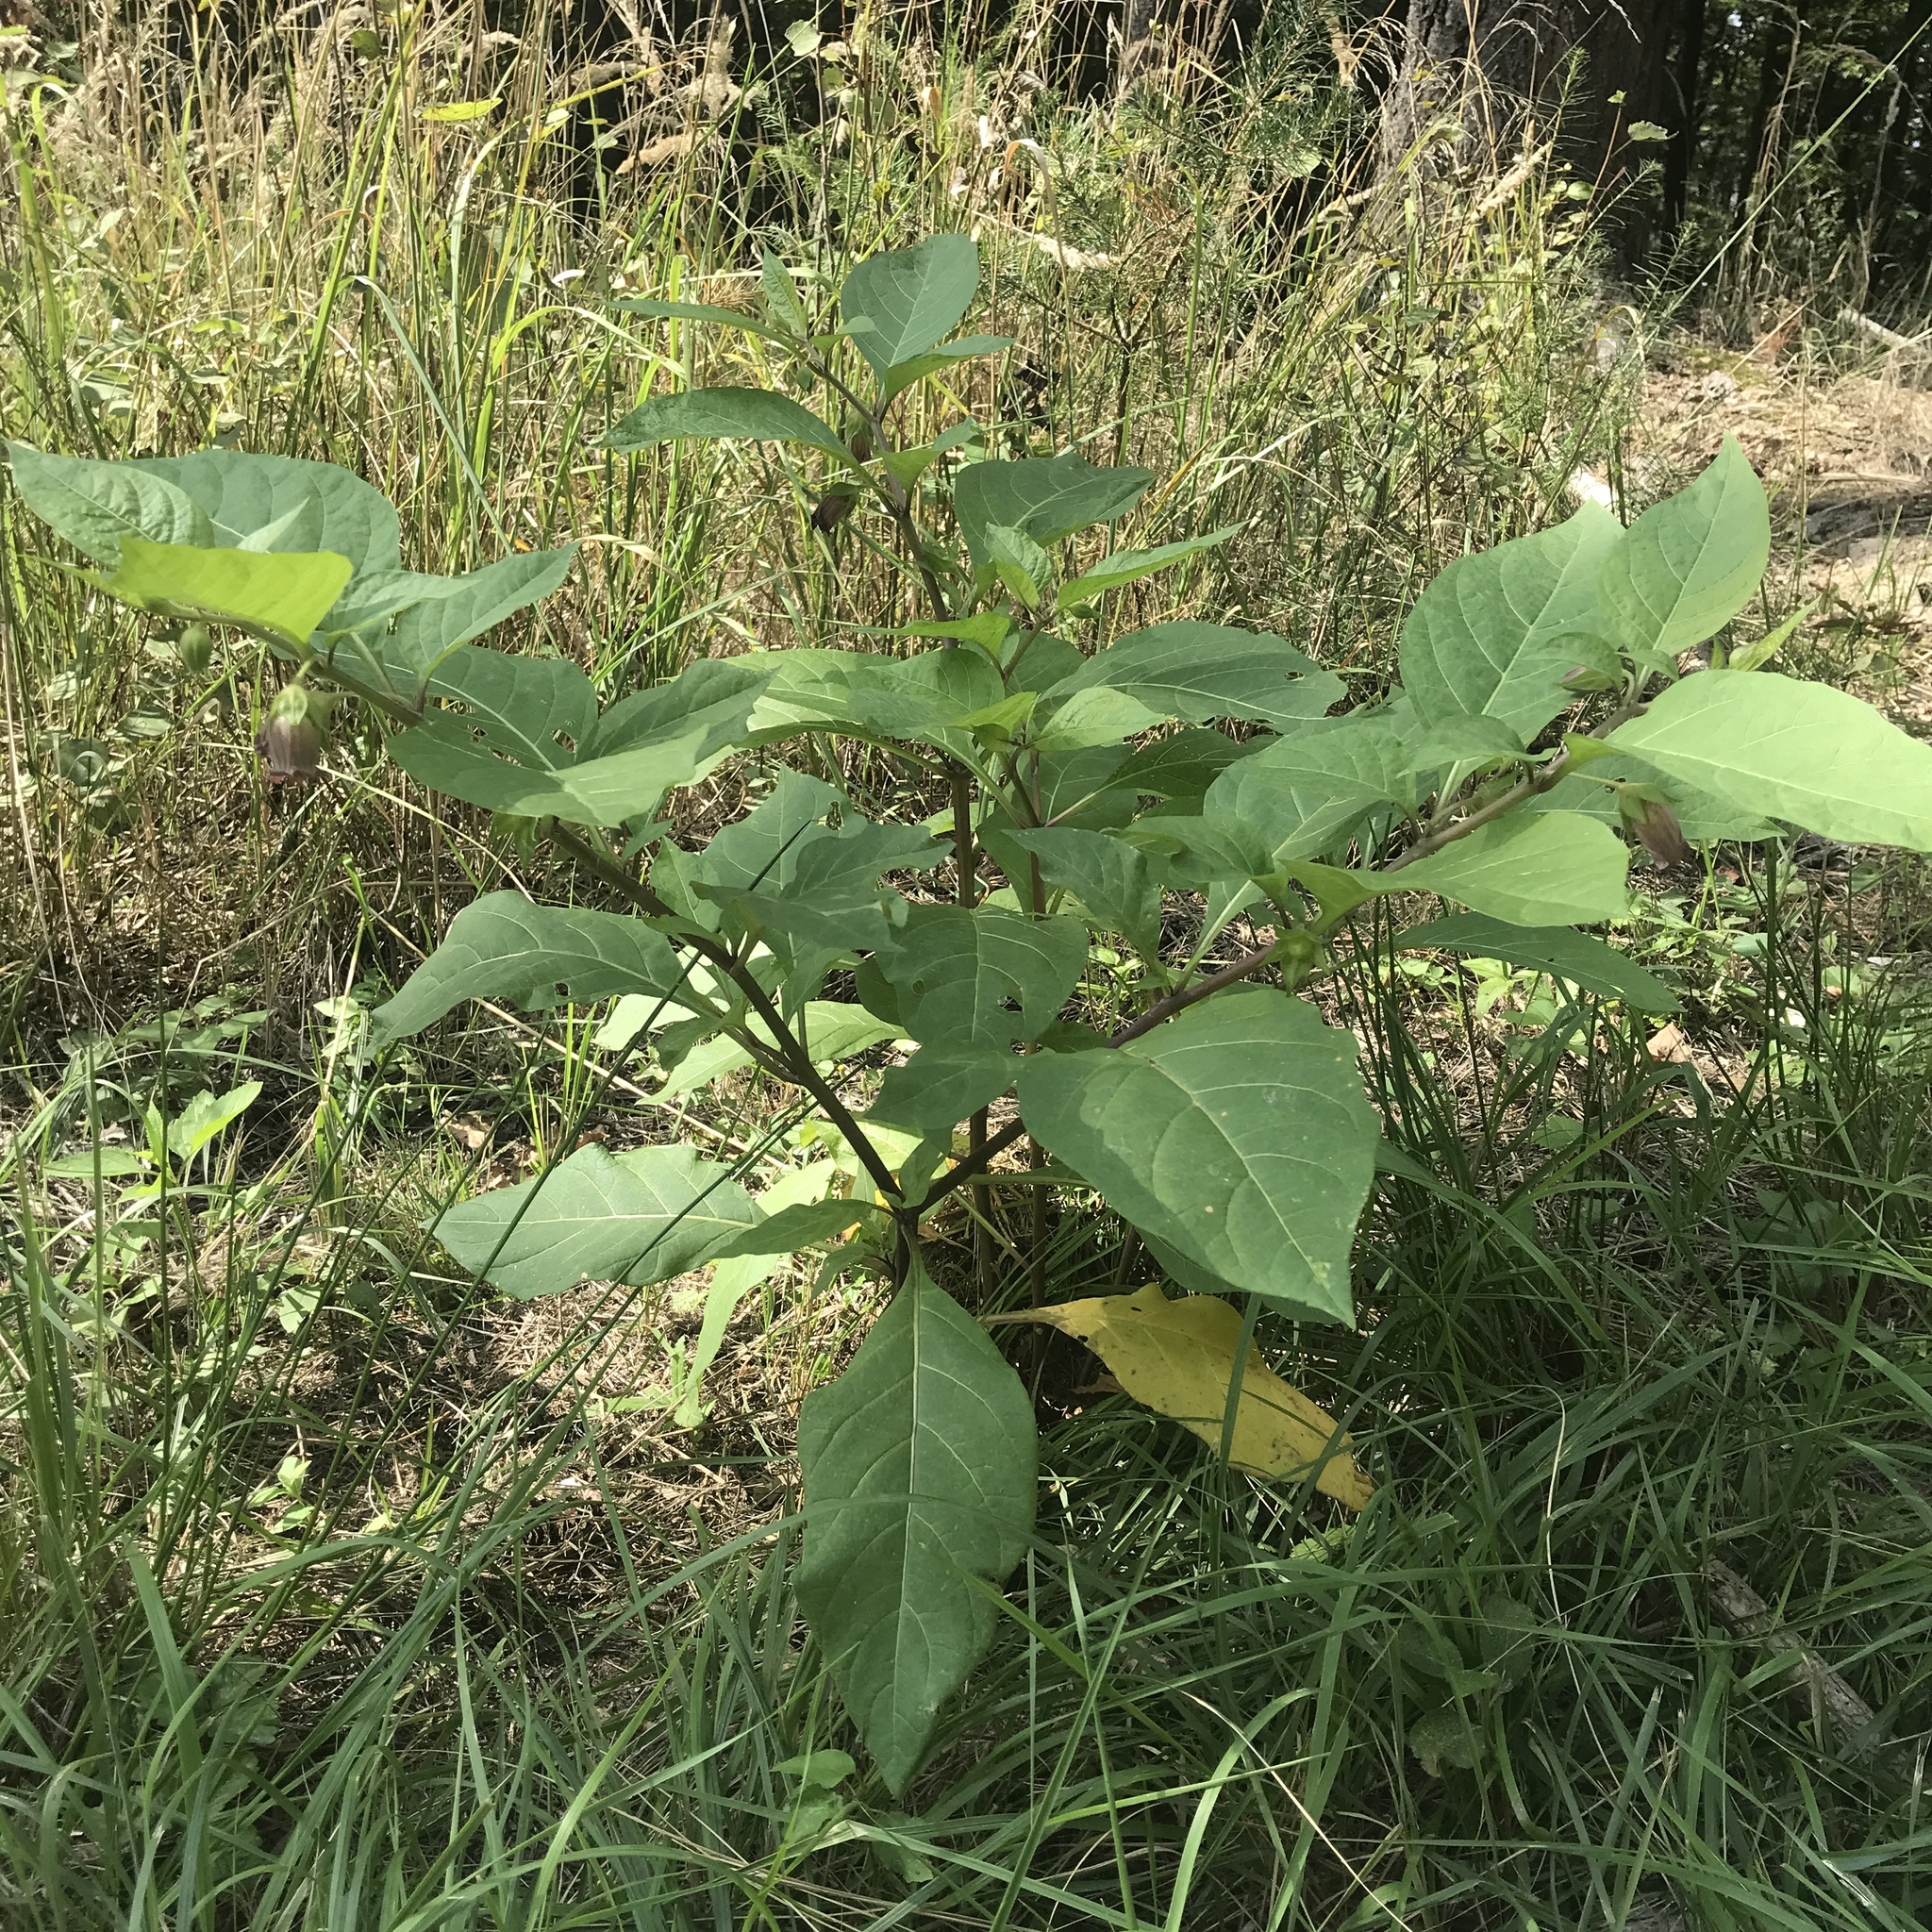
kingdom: Plantae
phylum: Tracheophyta
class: Magnoliopsida
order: Solanales
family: Solanaceae
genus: Atropa
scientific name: Atropa belladonna
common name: Deadly nightshade
